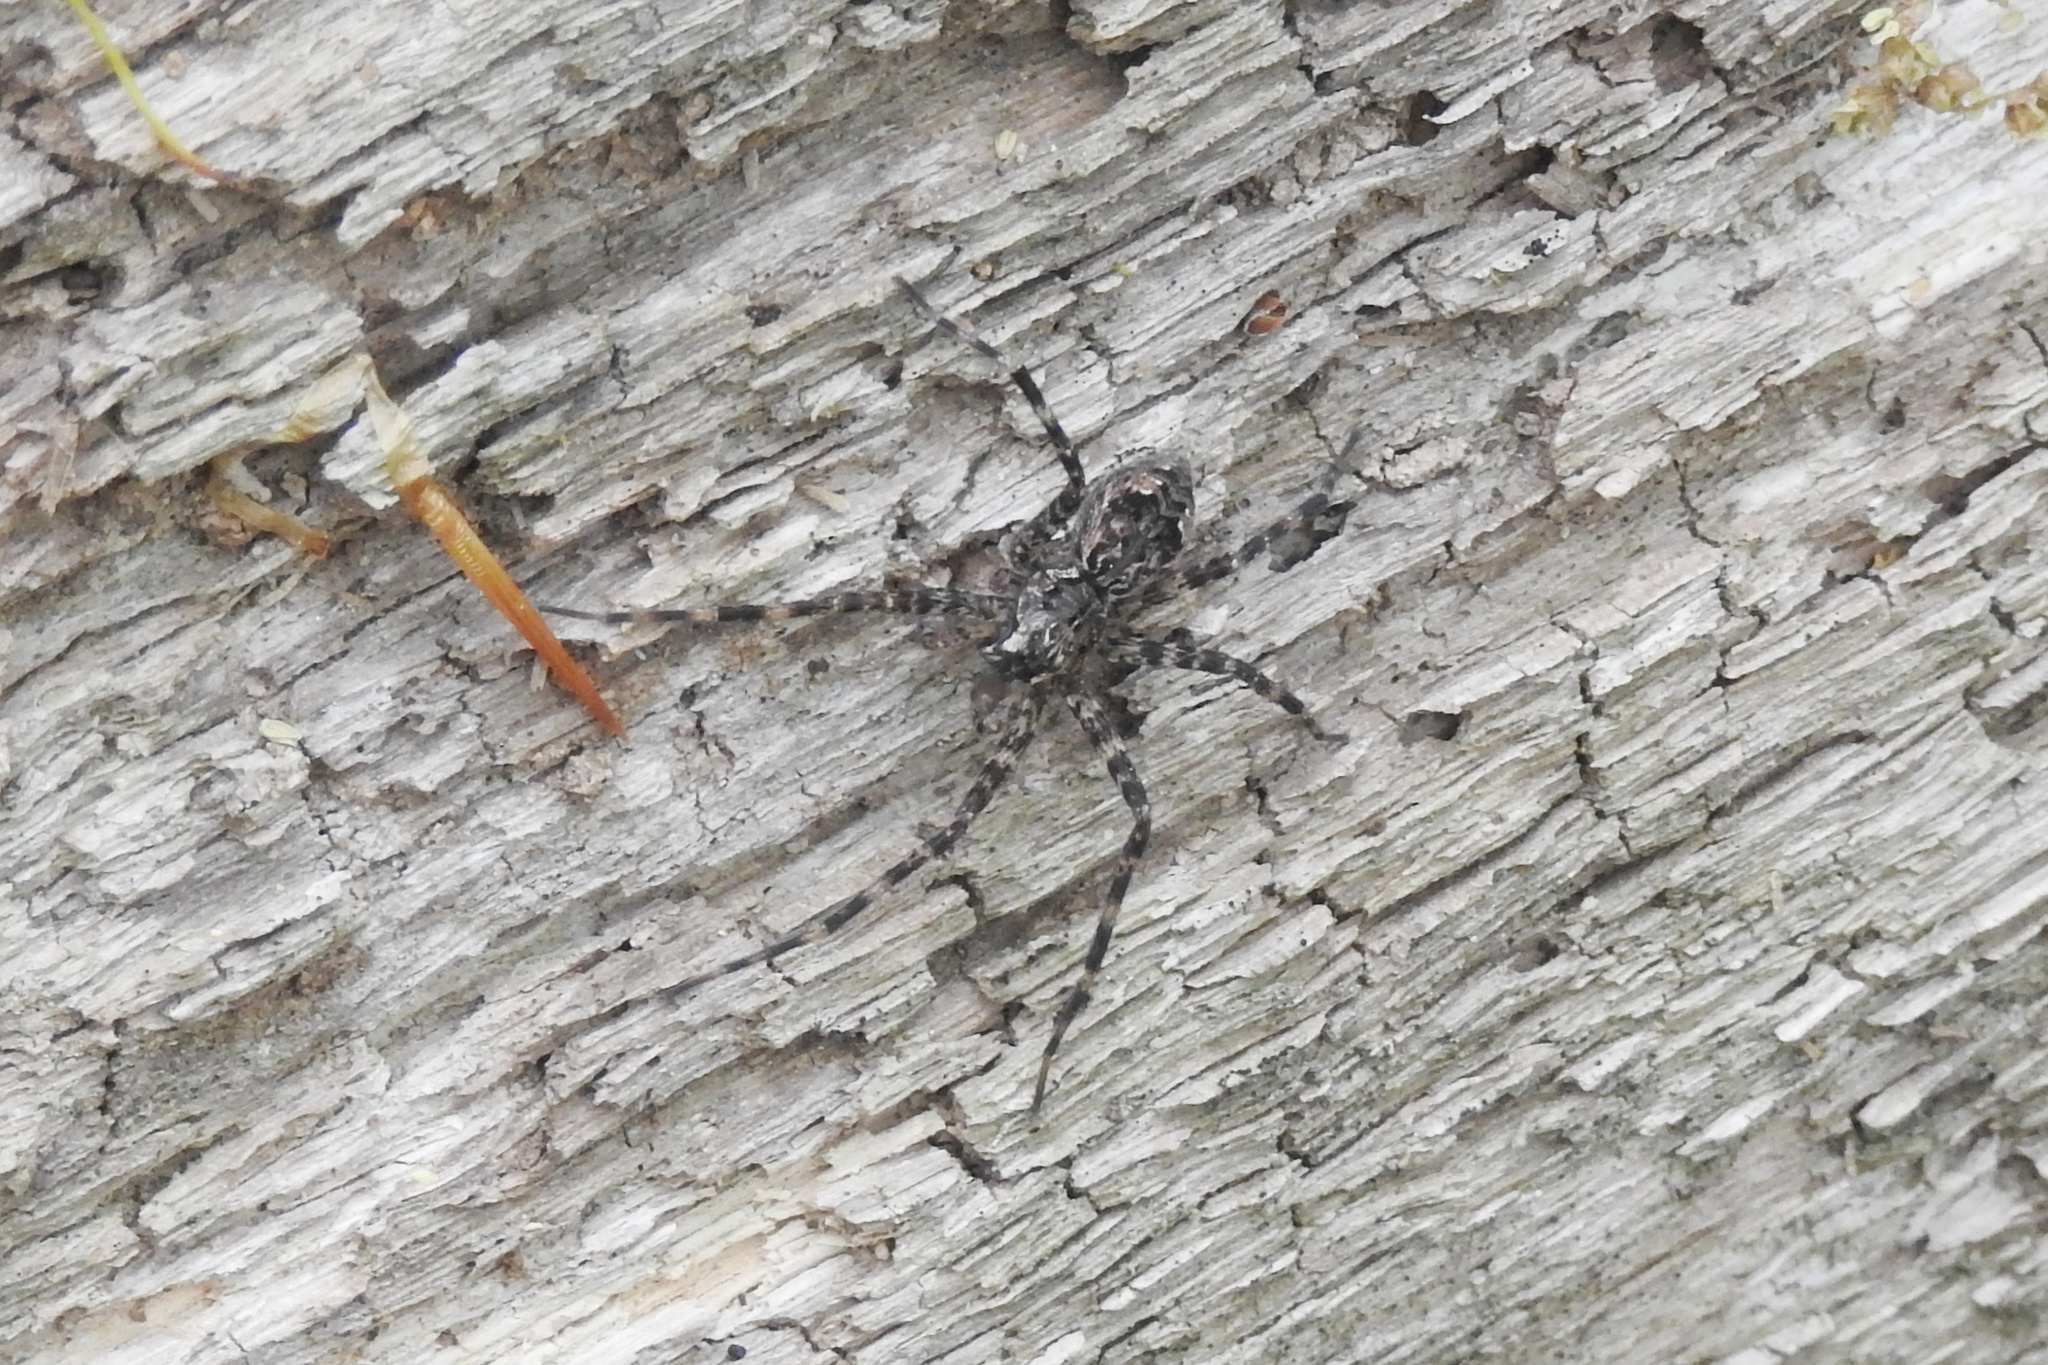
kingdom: Animalia
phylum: Arthropoda
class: Arachnida
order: Araneae
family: Pisauridae
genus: Dolomedes
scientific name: Dolomedes tenebrosus
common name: Dark fishing spider
